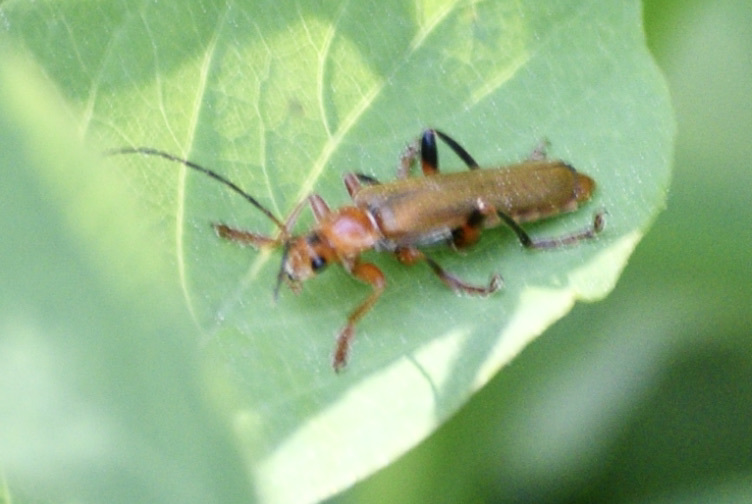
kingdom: Animalia
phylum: Arthropoda
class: Insecta
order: Coleoptera
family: Cantharidae
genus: Cantharis
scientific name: Cantharis livida
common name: Livid soldier beetle
